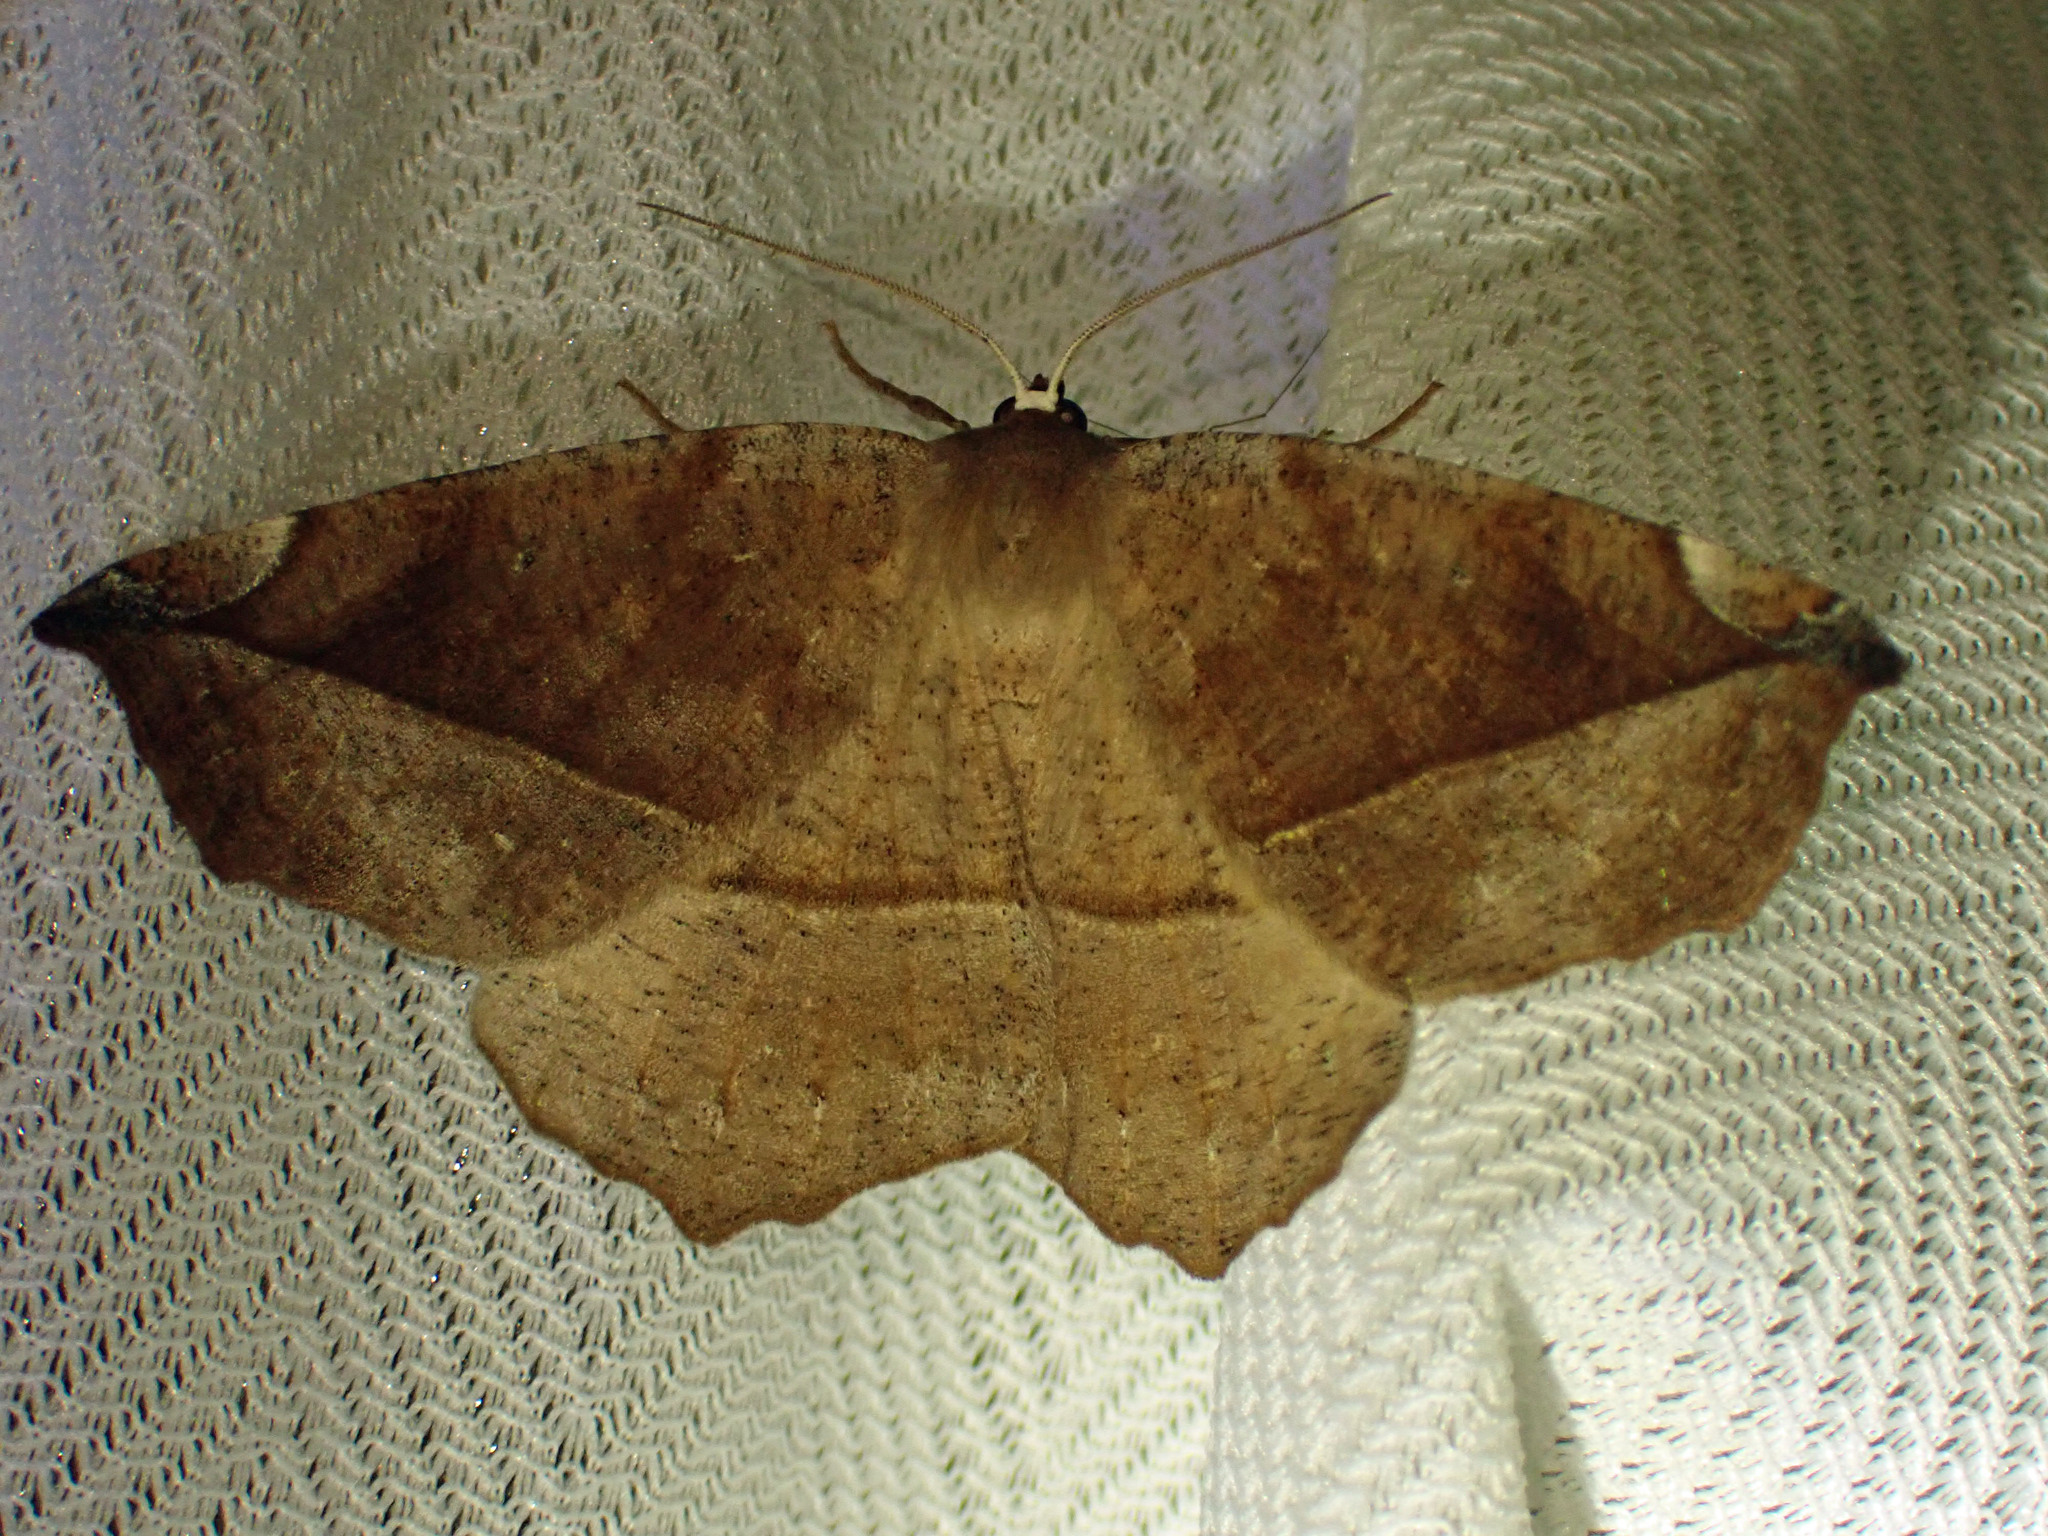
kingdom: Animalia
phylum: Arthropoda
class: Insecta
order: Lepidoptera
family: Geometridae
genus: Eutrapela
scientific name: Eutrapela clemataria
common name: Curved-toothed geometer
